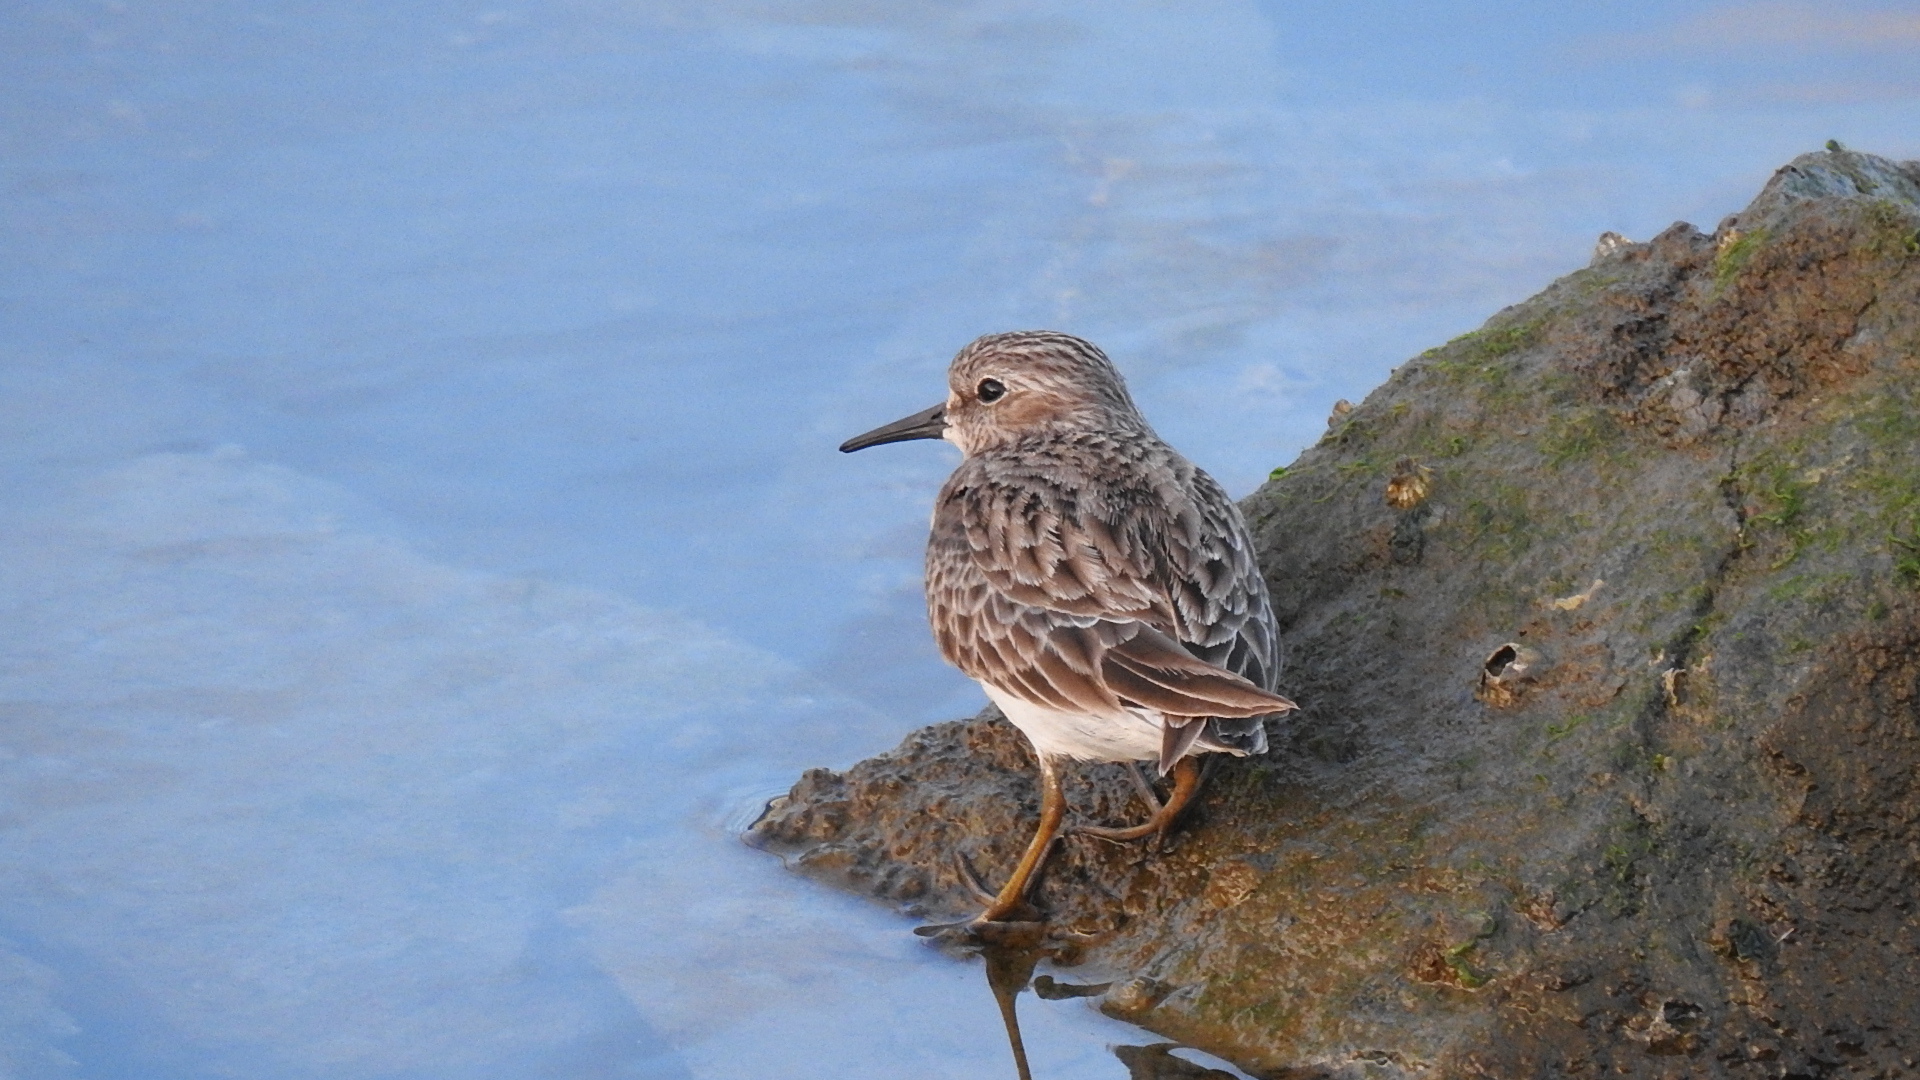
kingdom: Animalia
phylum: Chordata
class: Aves
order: Charadriiformes
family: Scolopacidae
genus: Calidris
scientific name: Calidris minutilla
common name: Least sandpiper
